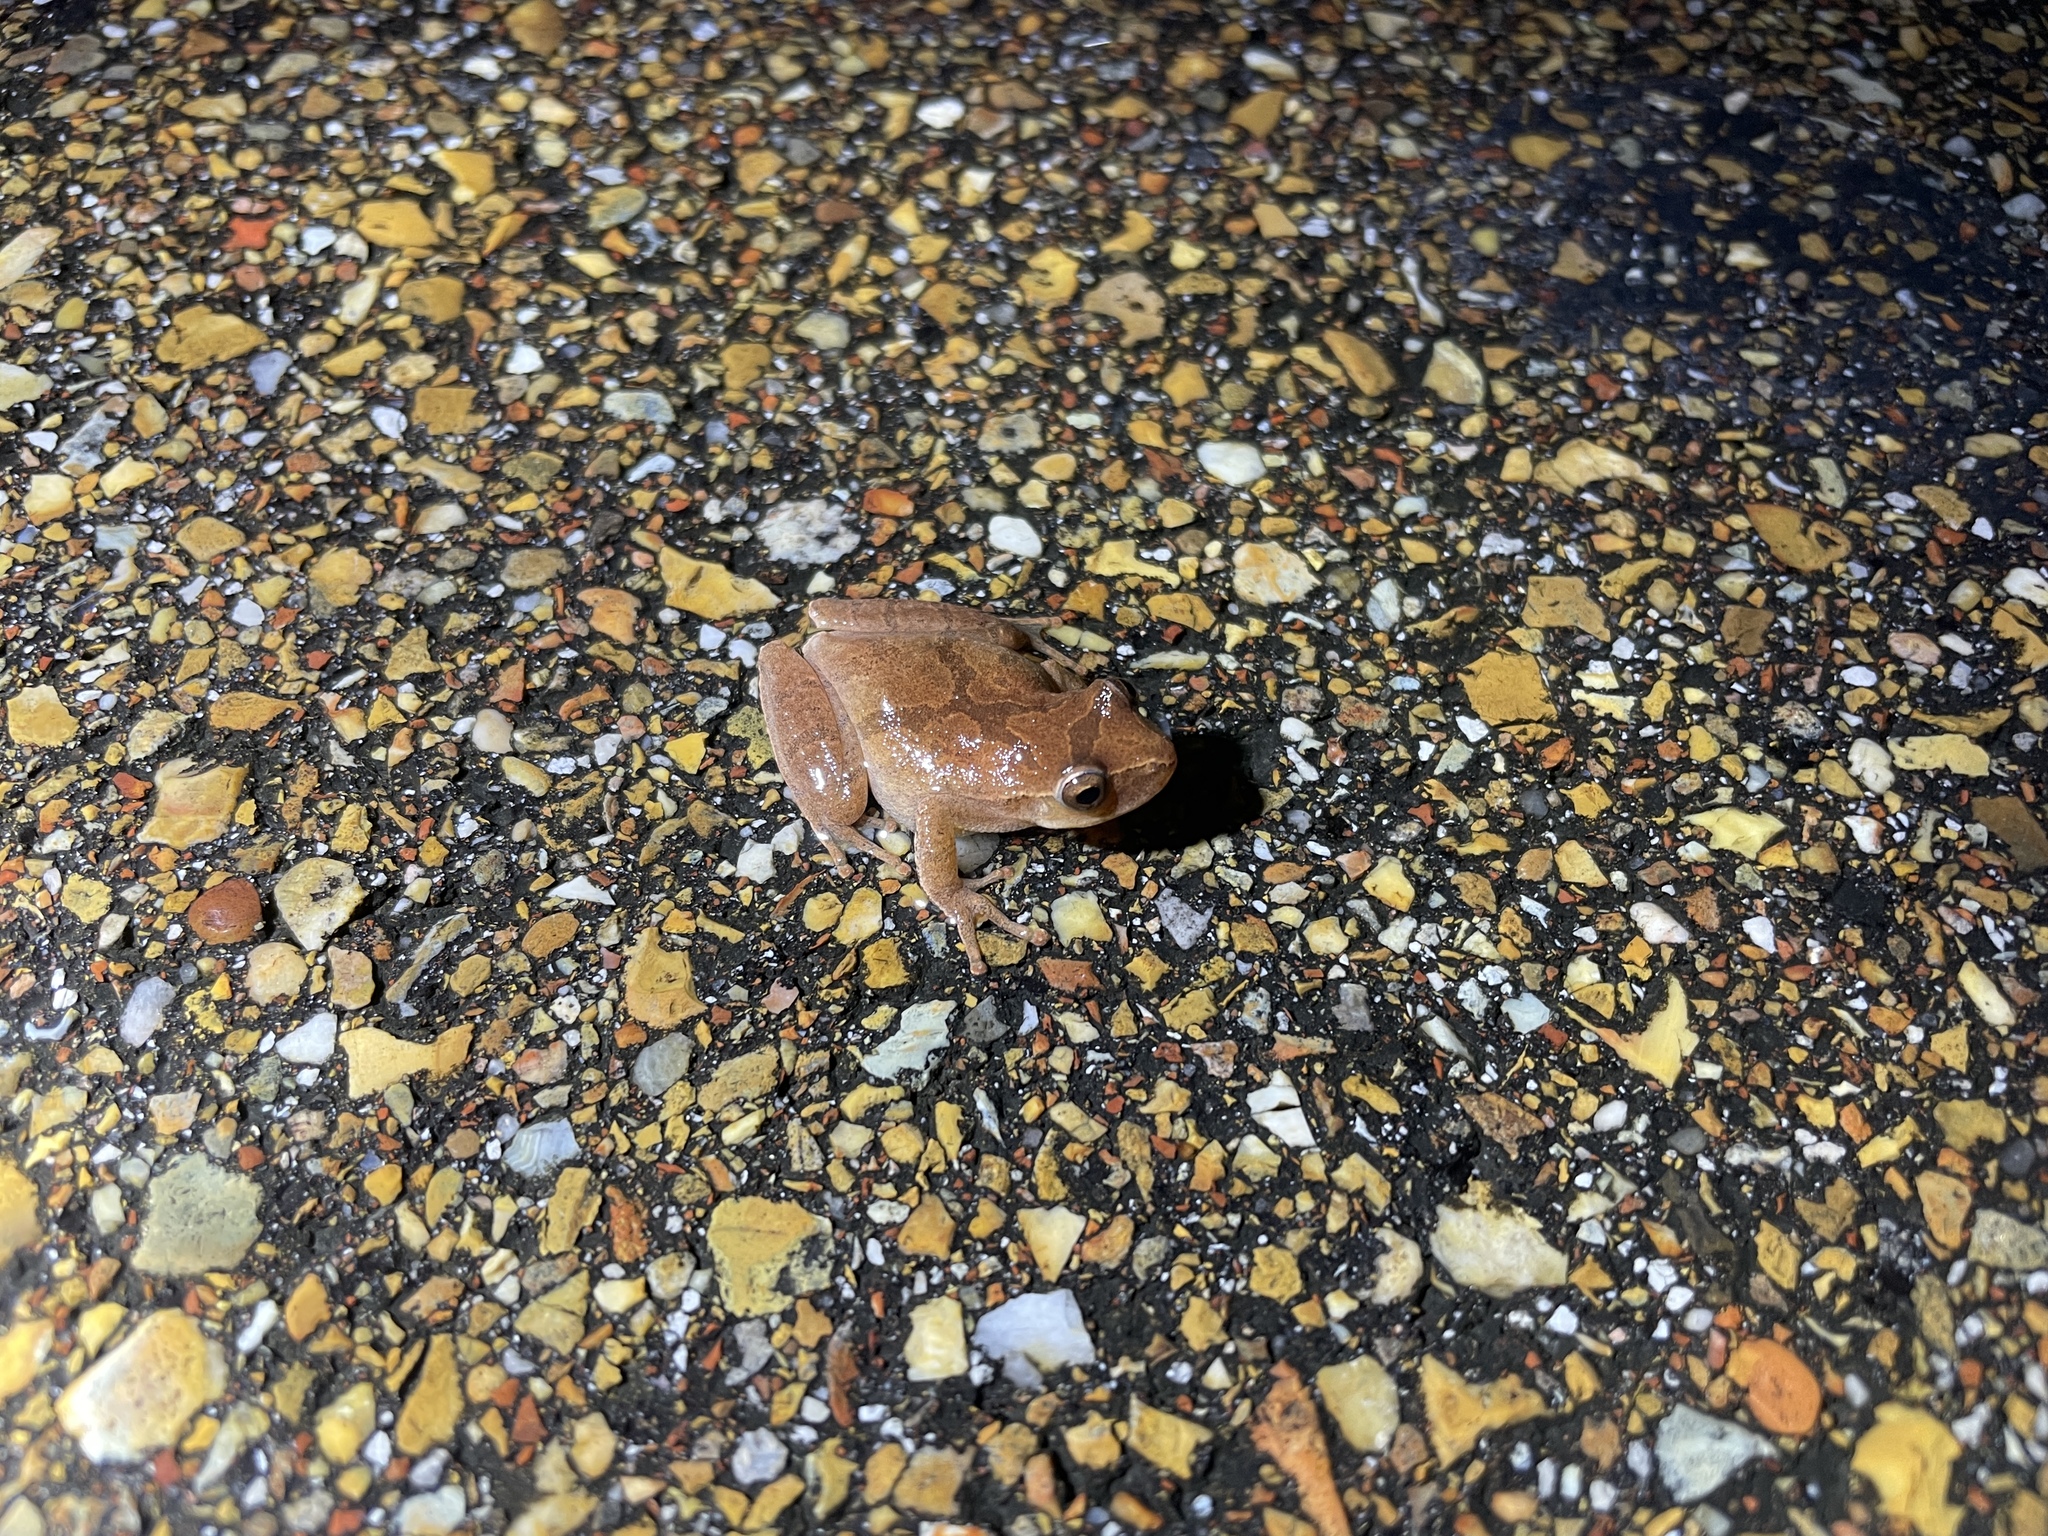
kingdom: Animalia
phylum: Chordata
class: Amphibia
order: Anura
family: Hylidae
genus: Pseudacris
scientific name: Pseudacris crucifer
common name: Spring peeper
